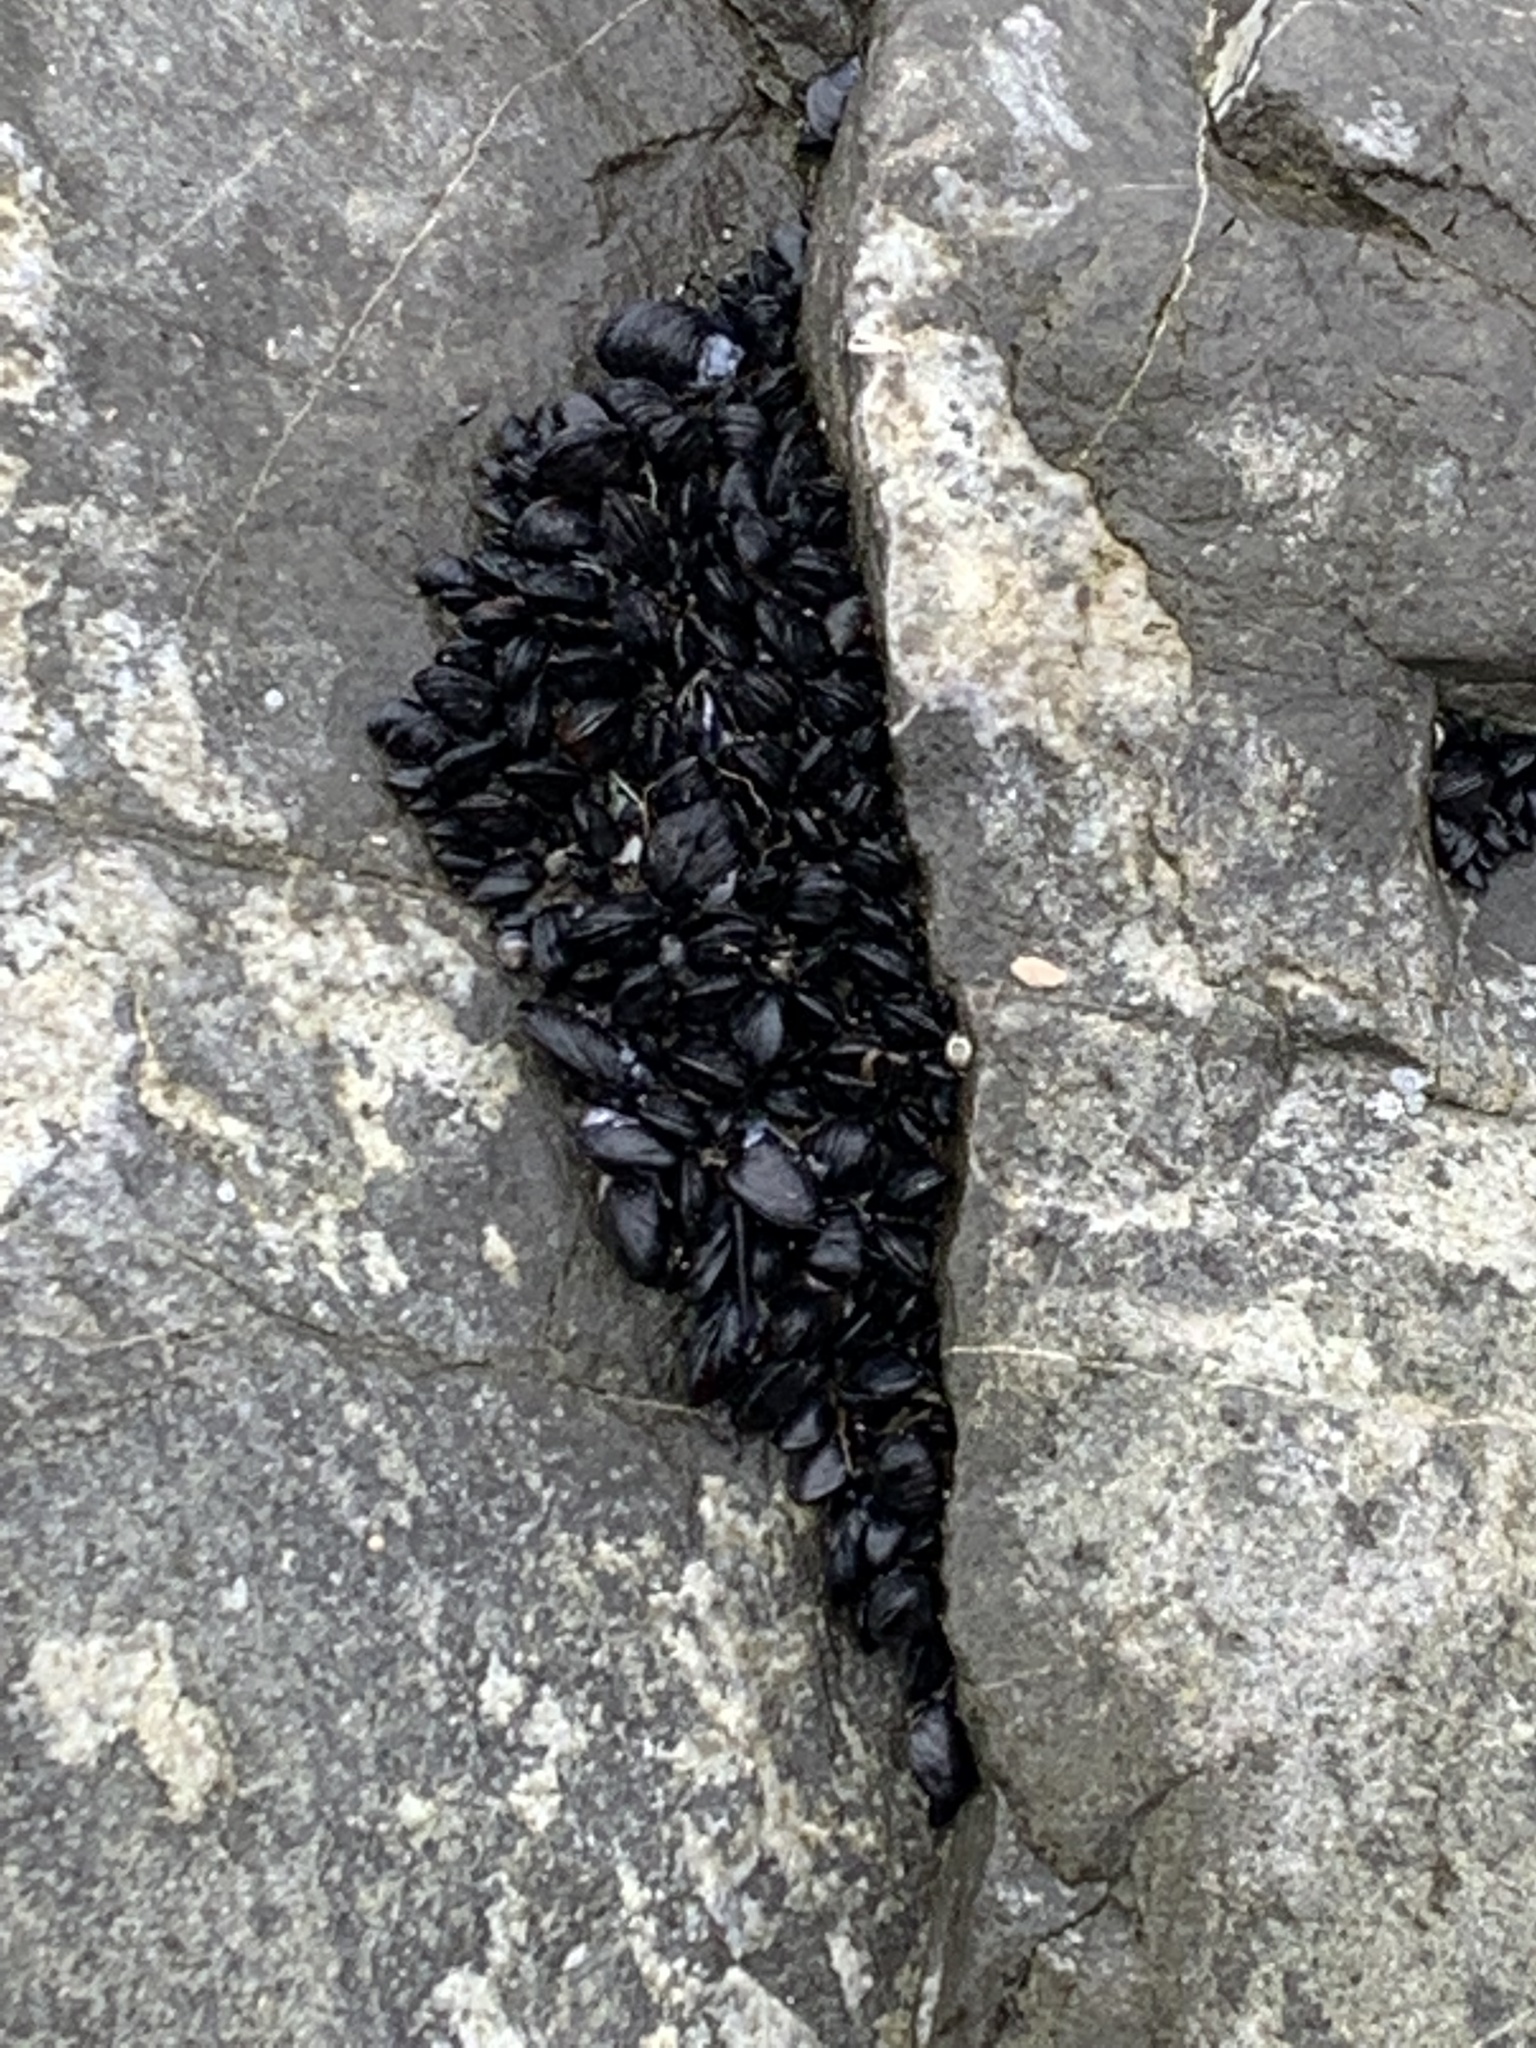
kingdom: Animalia
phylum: Mollusca
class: Bivalvia
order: Mytilida
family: Mytilidae
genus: Xenostrobus
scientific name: Xenostrobus neozelanicus
